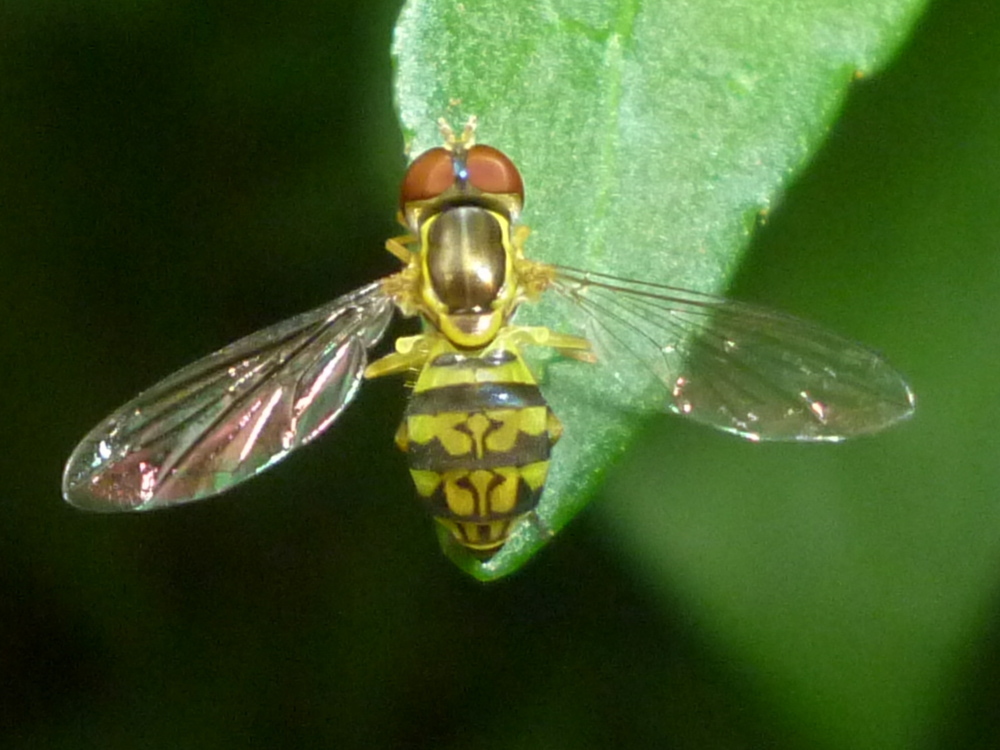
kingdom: Animalia
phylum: Arthropoda
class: Insecta
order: Diptera
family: Syrphidae
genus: Toxomerus
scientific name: Toxomerus geminatus
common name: Eastern calligrapher
